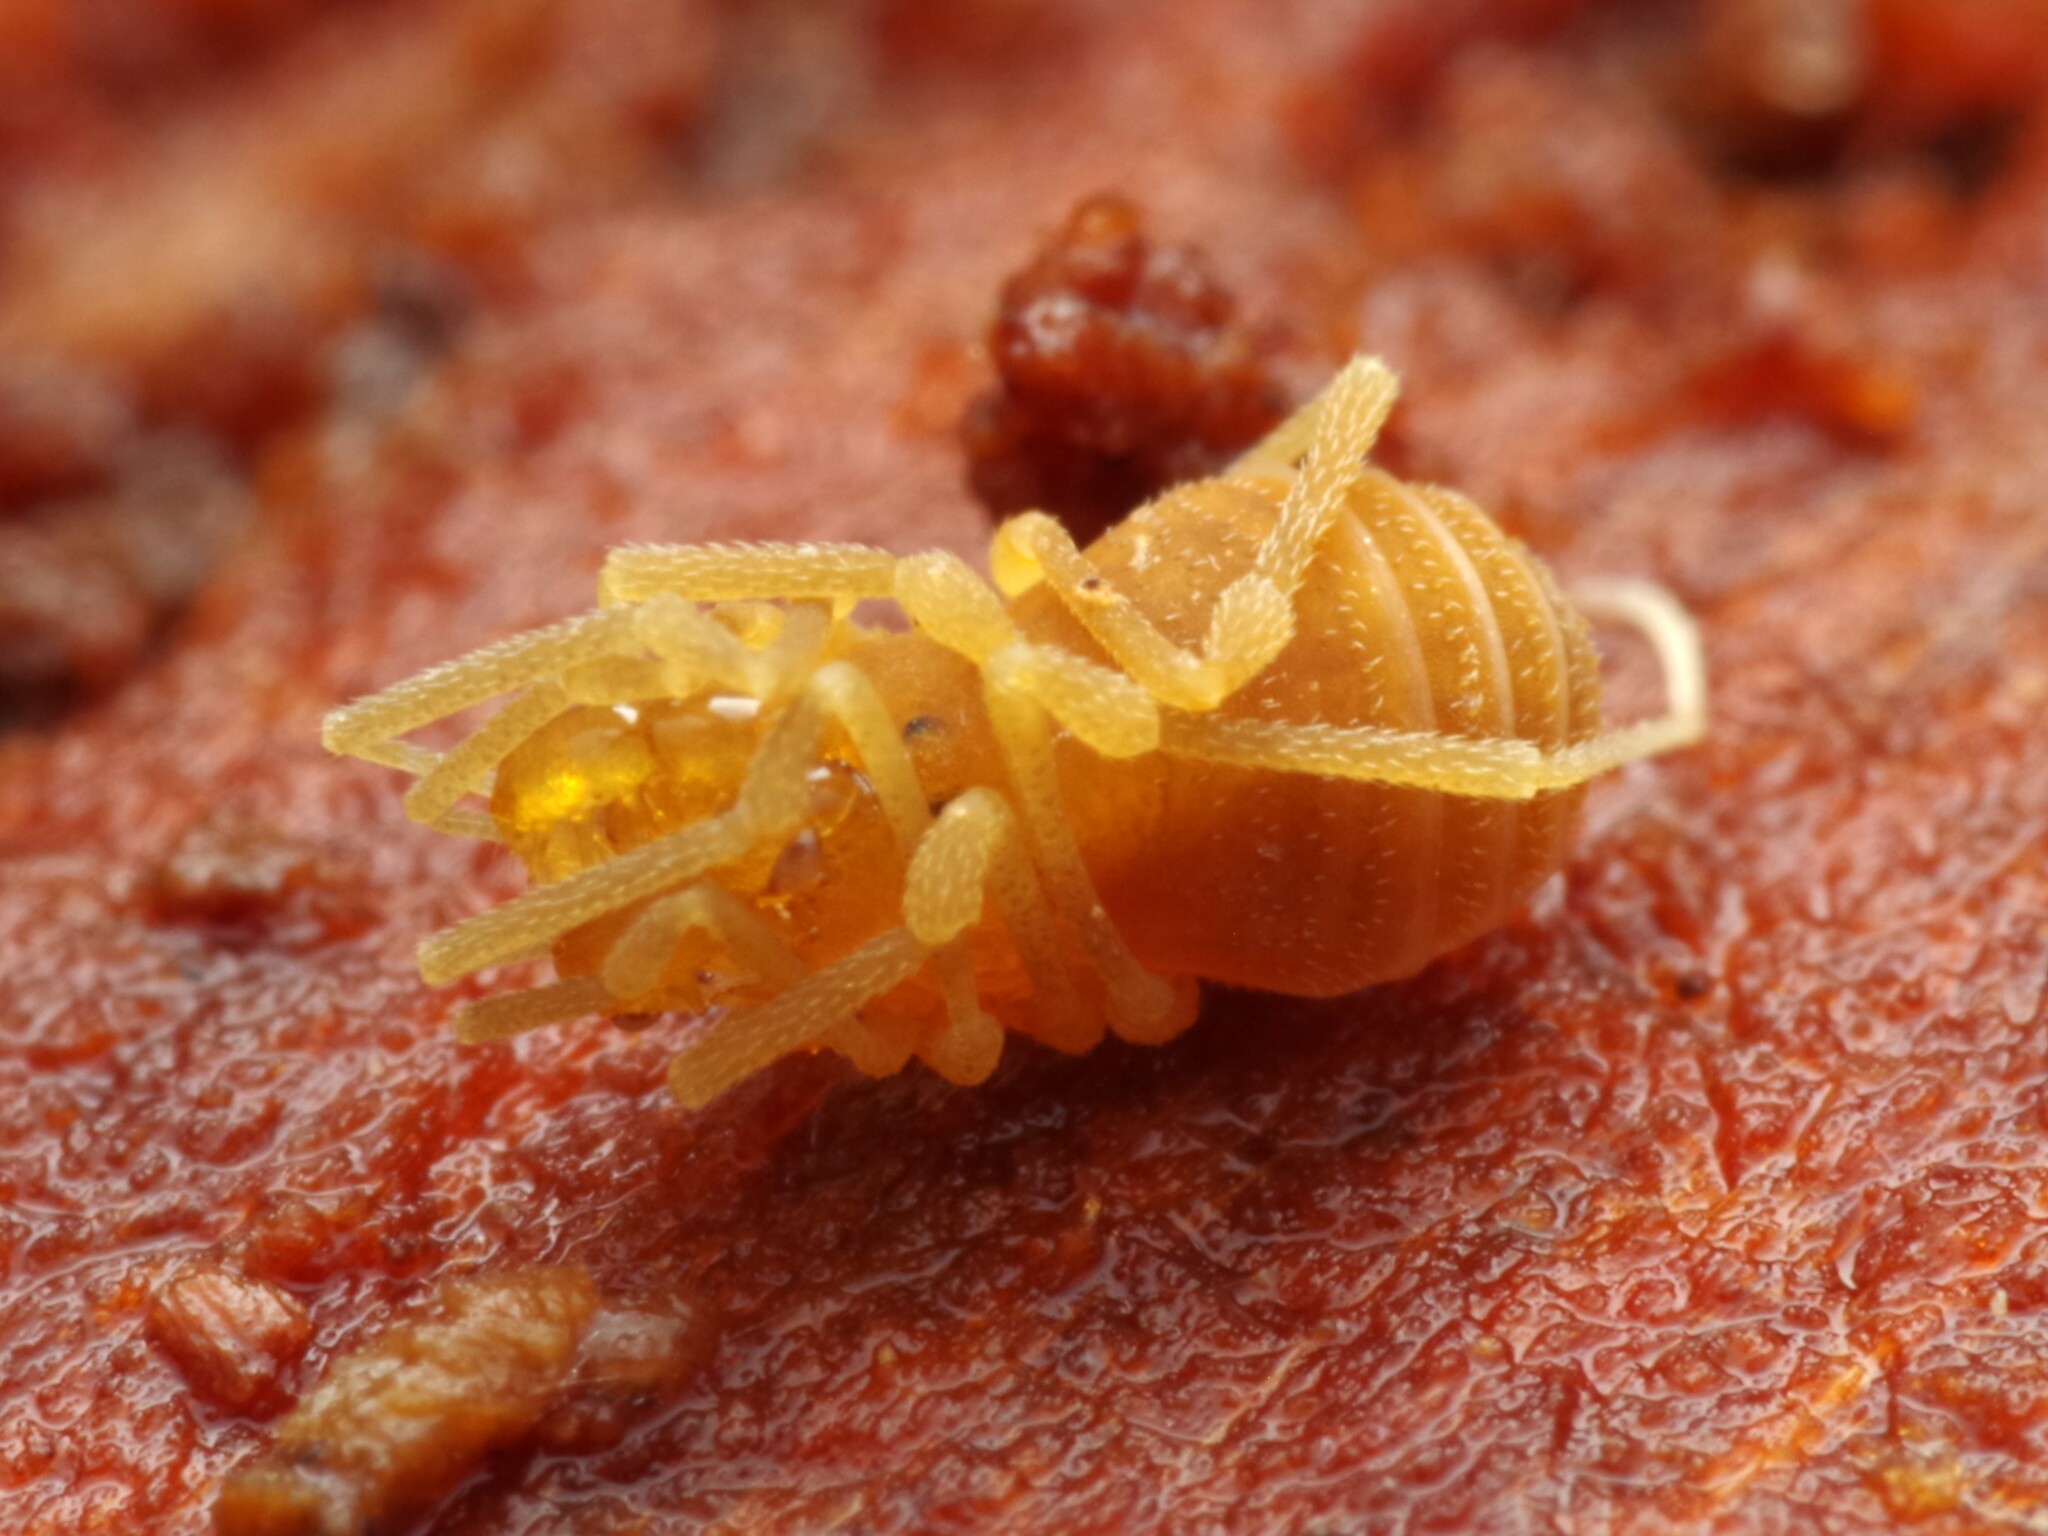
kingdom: Animalia
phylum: Arthropoda
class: Arachnida
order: Opiliones
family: Cladonychiidae
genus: Holoscotolemon
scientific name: Holoscotolemon querilhaci
